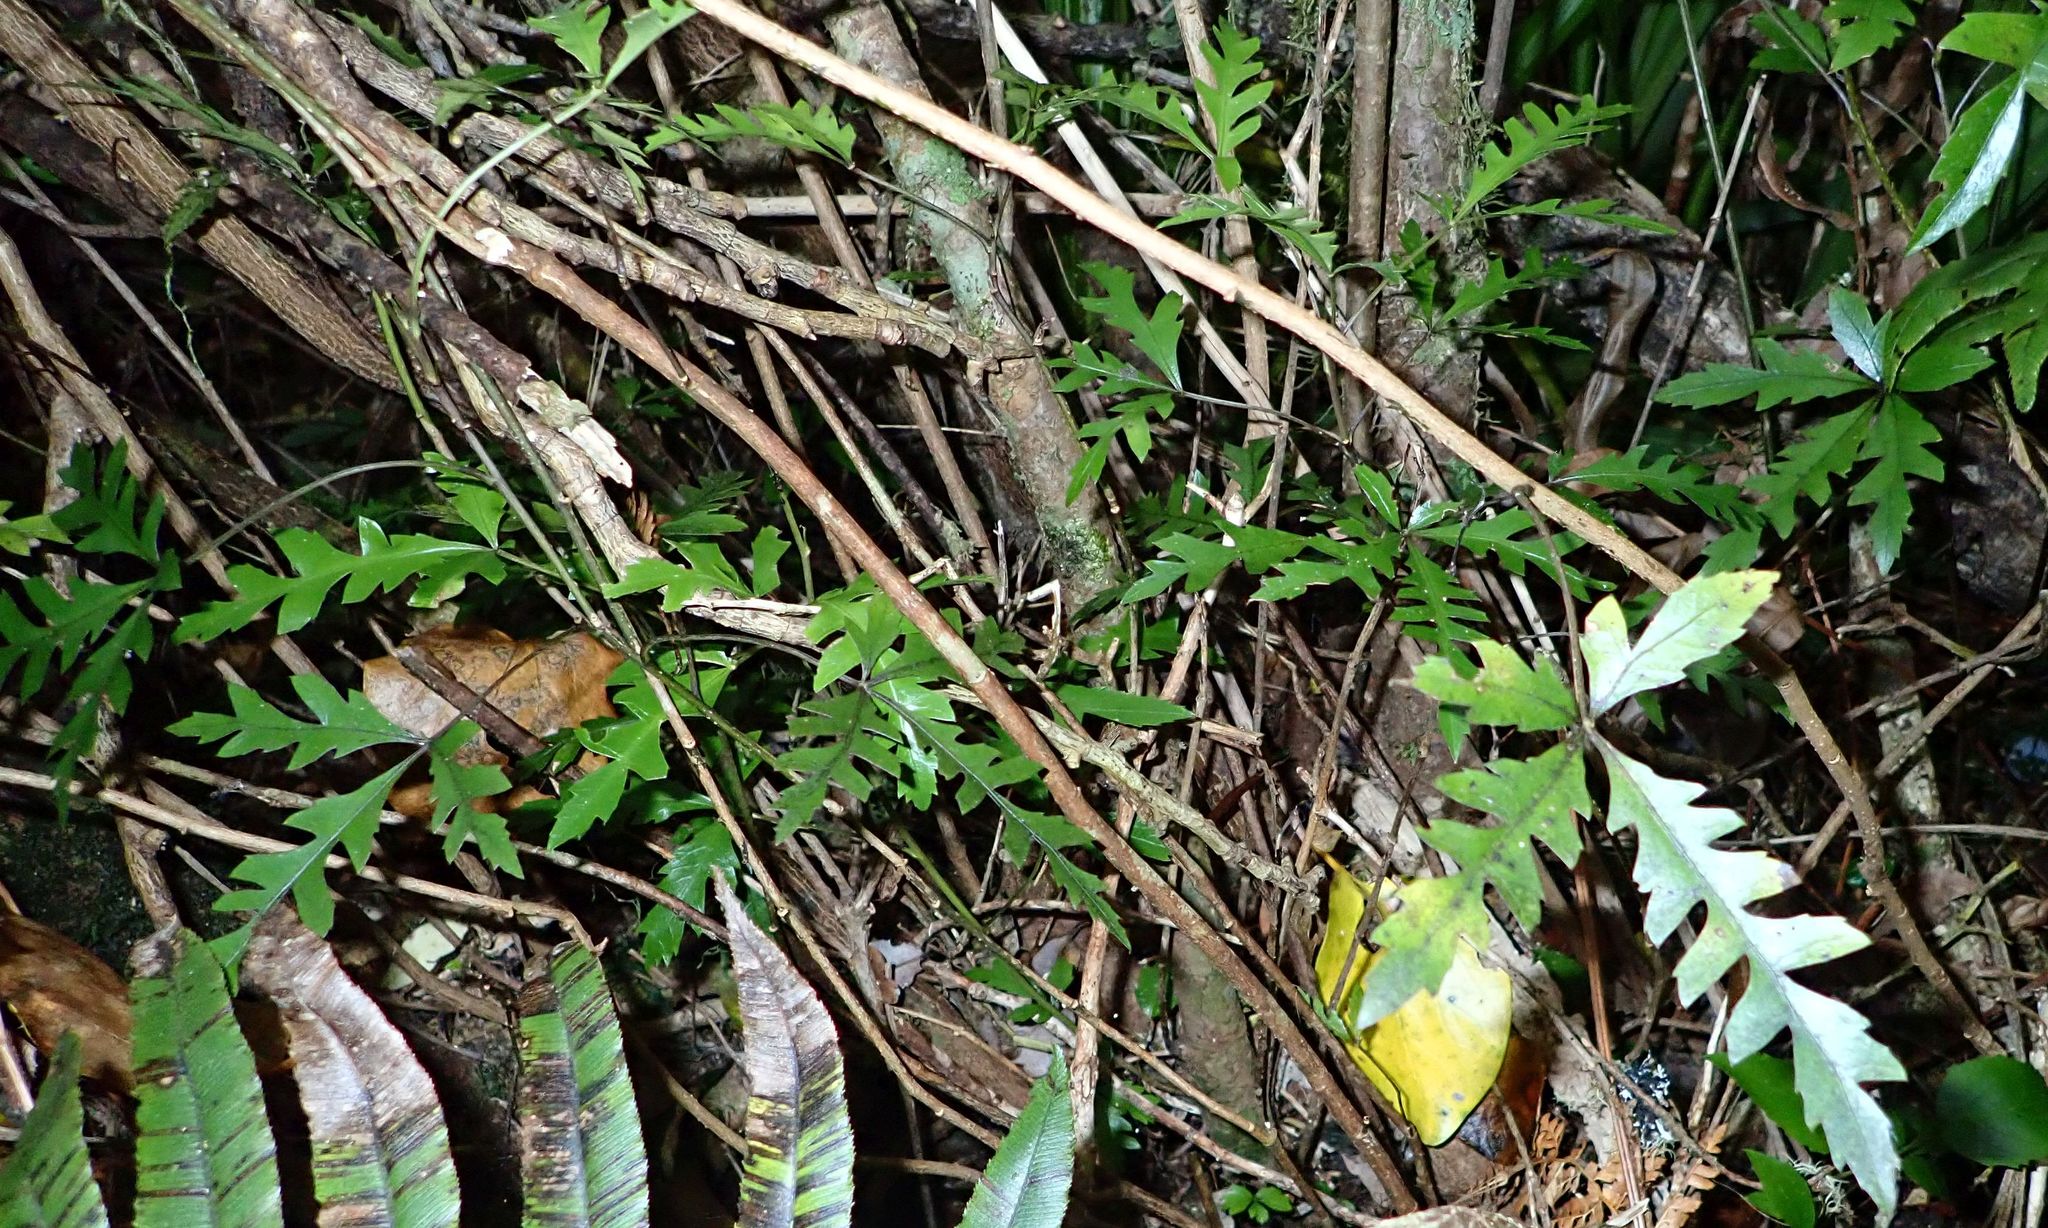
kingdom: Plantae
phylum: Tracheophyta
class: Magnoliopsida
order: Apiales
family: Araliaceae
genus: Raukaua
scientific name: Raukaua simplex
